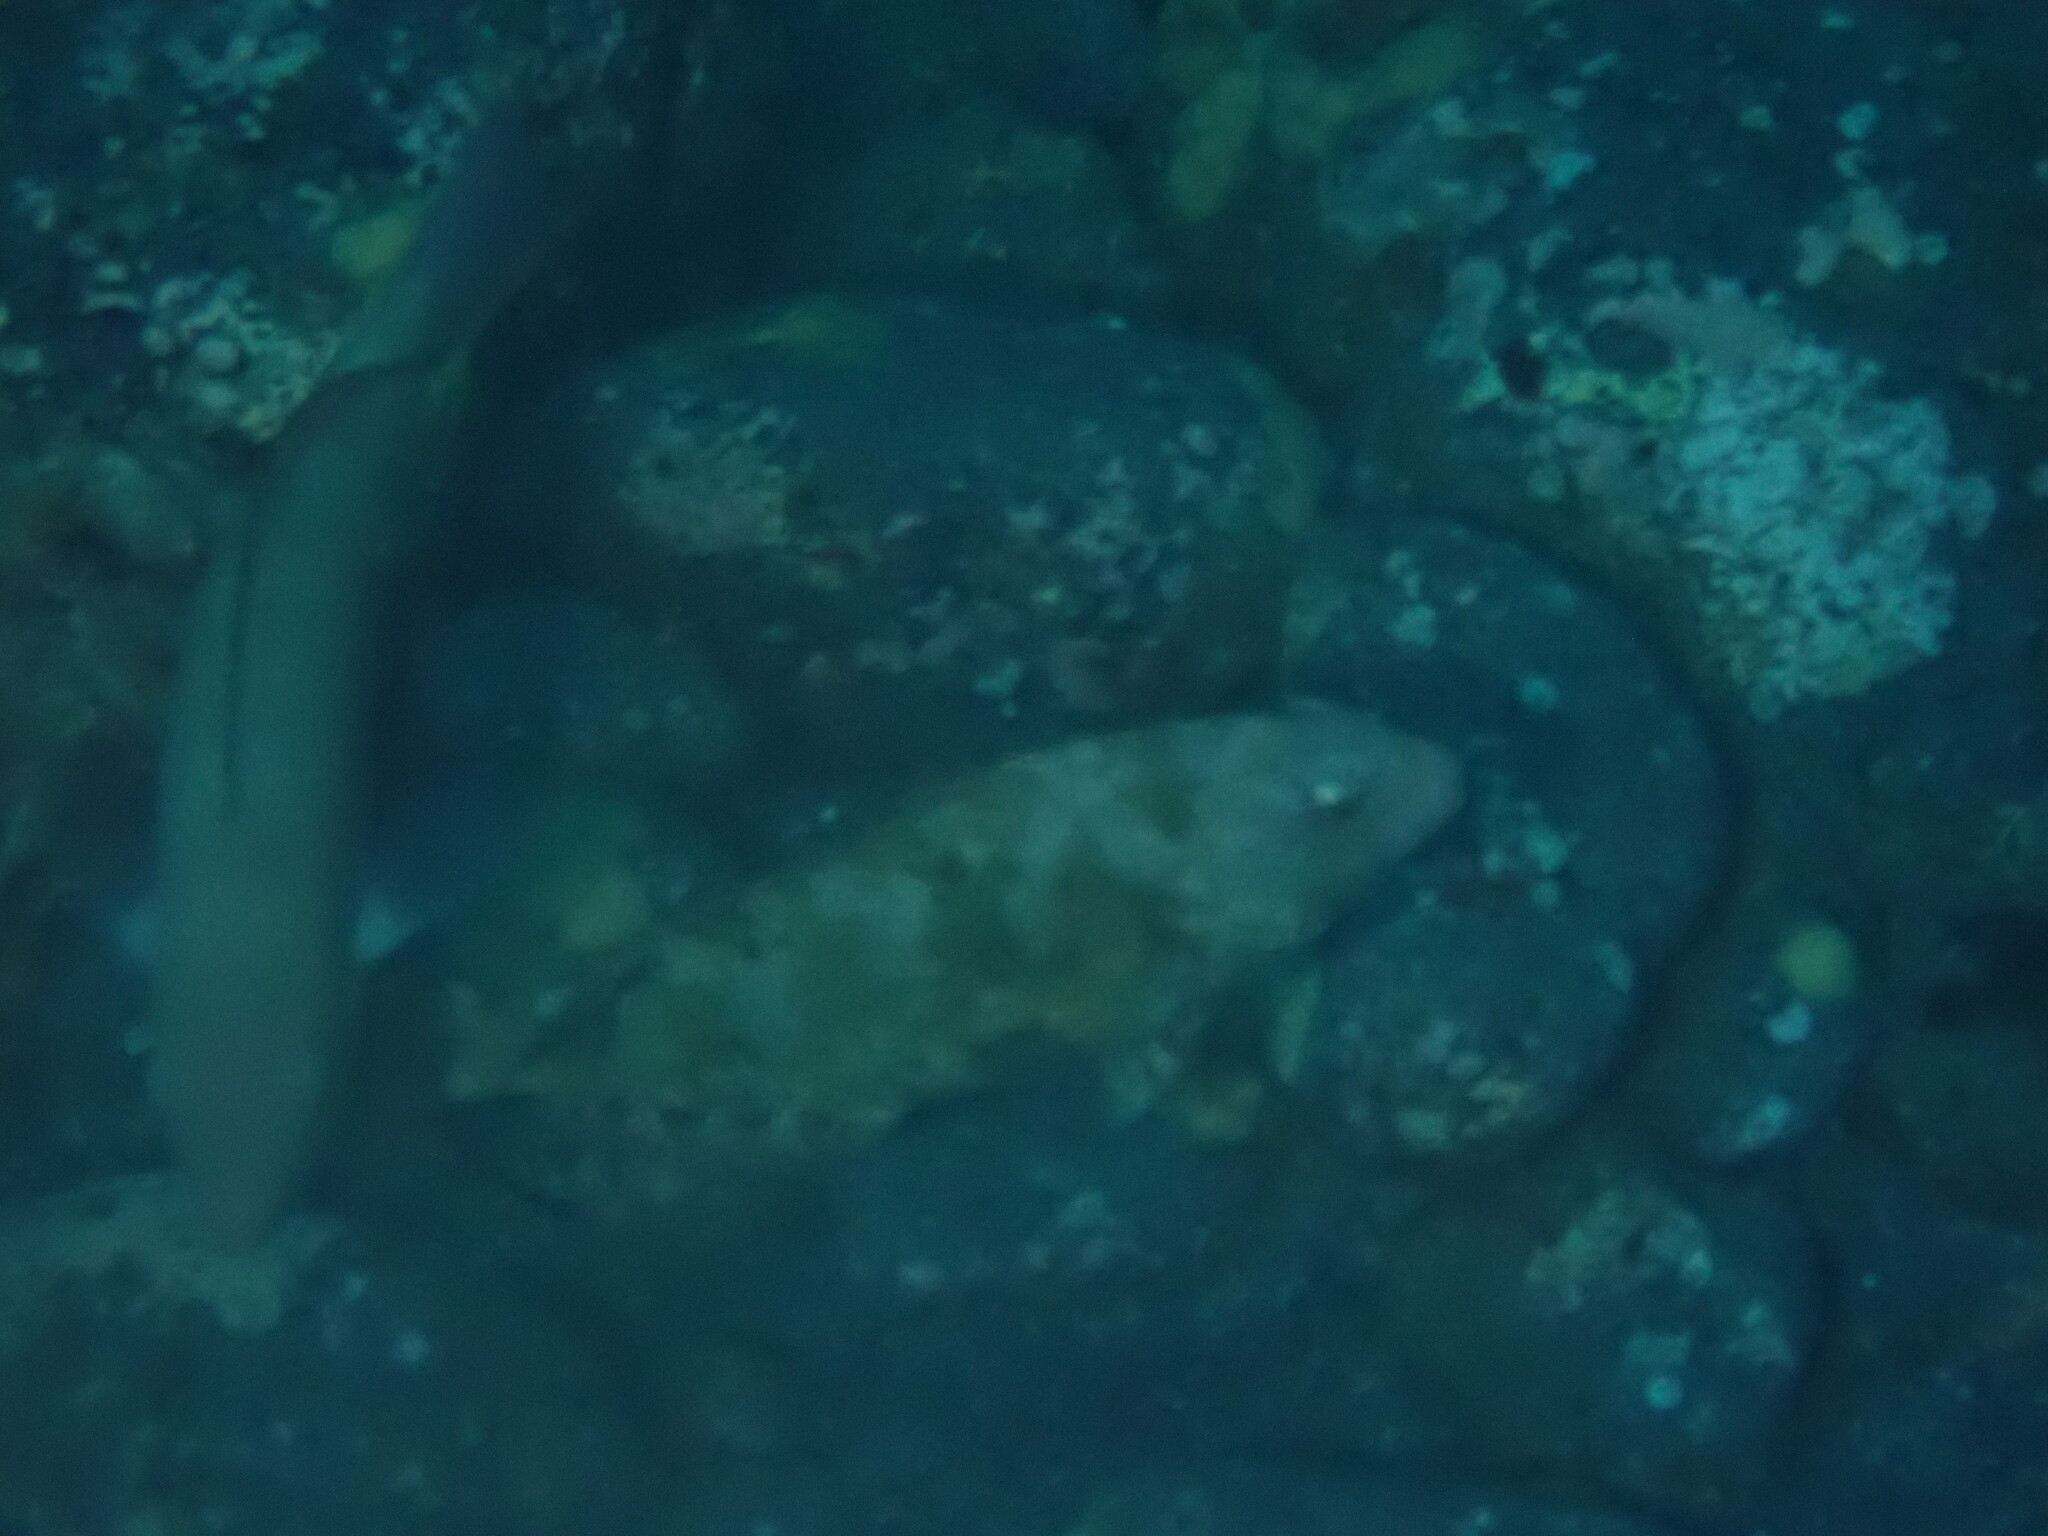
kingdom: Animalia
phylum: Chordata
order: Perciformes
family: Scaridae
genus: Calotomus
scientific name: Calotomus carolinus
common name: Bucktooth
